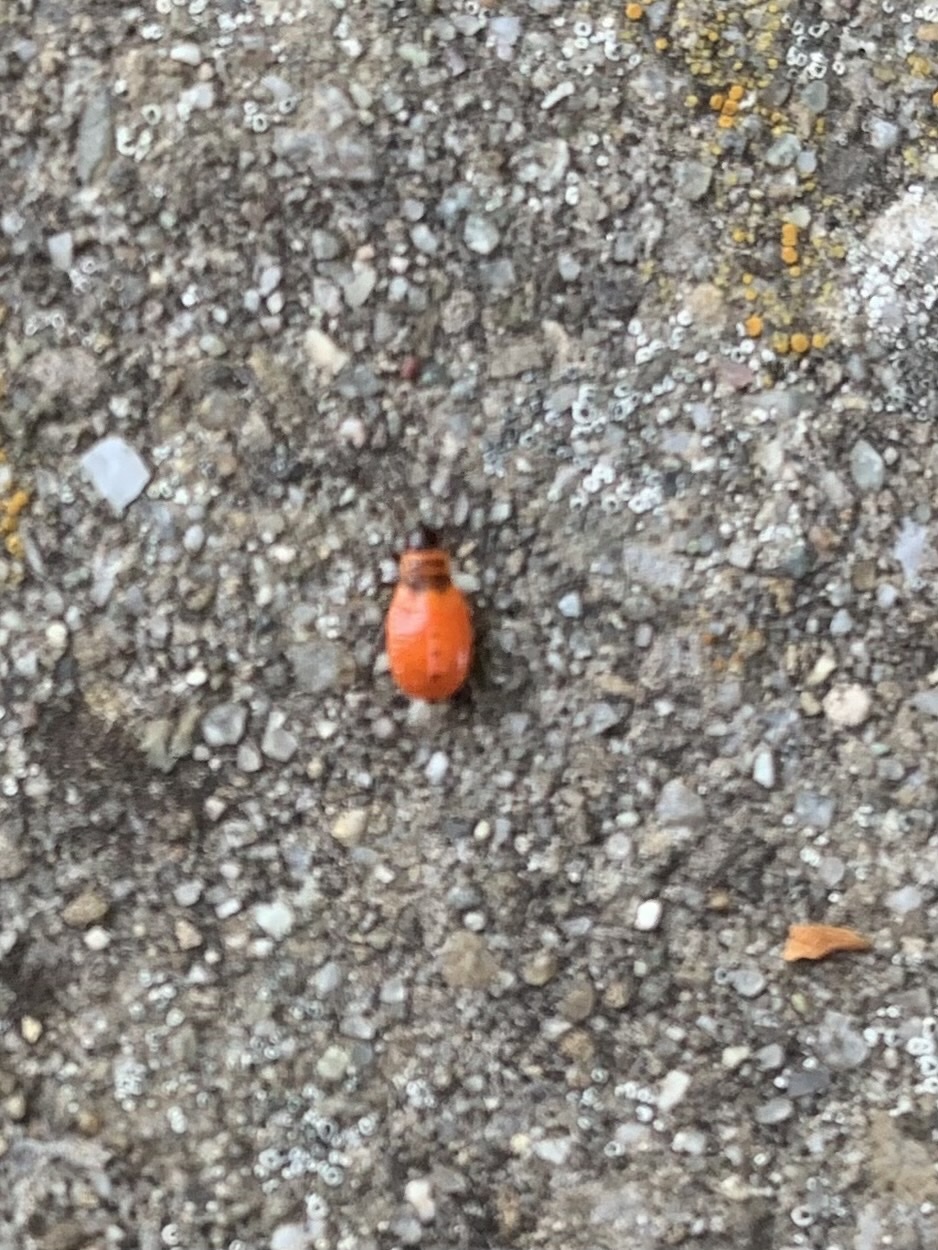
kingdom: Animalia
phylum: Arthropoda
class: Insecta
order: Hemiptera
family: Pyrrhocoridae
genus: Pyrrhocoris
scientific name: Pyrrhocoris apterus
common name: Firebug
